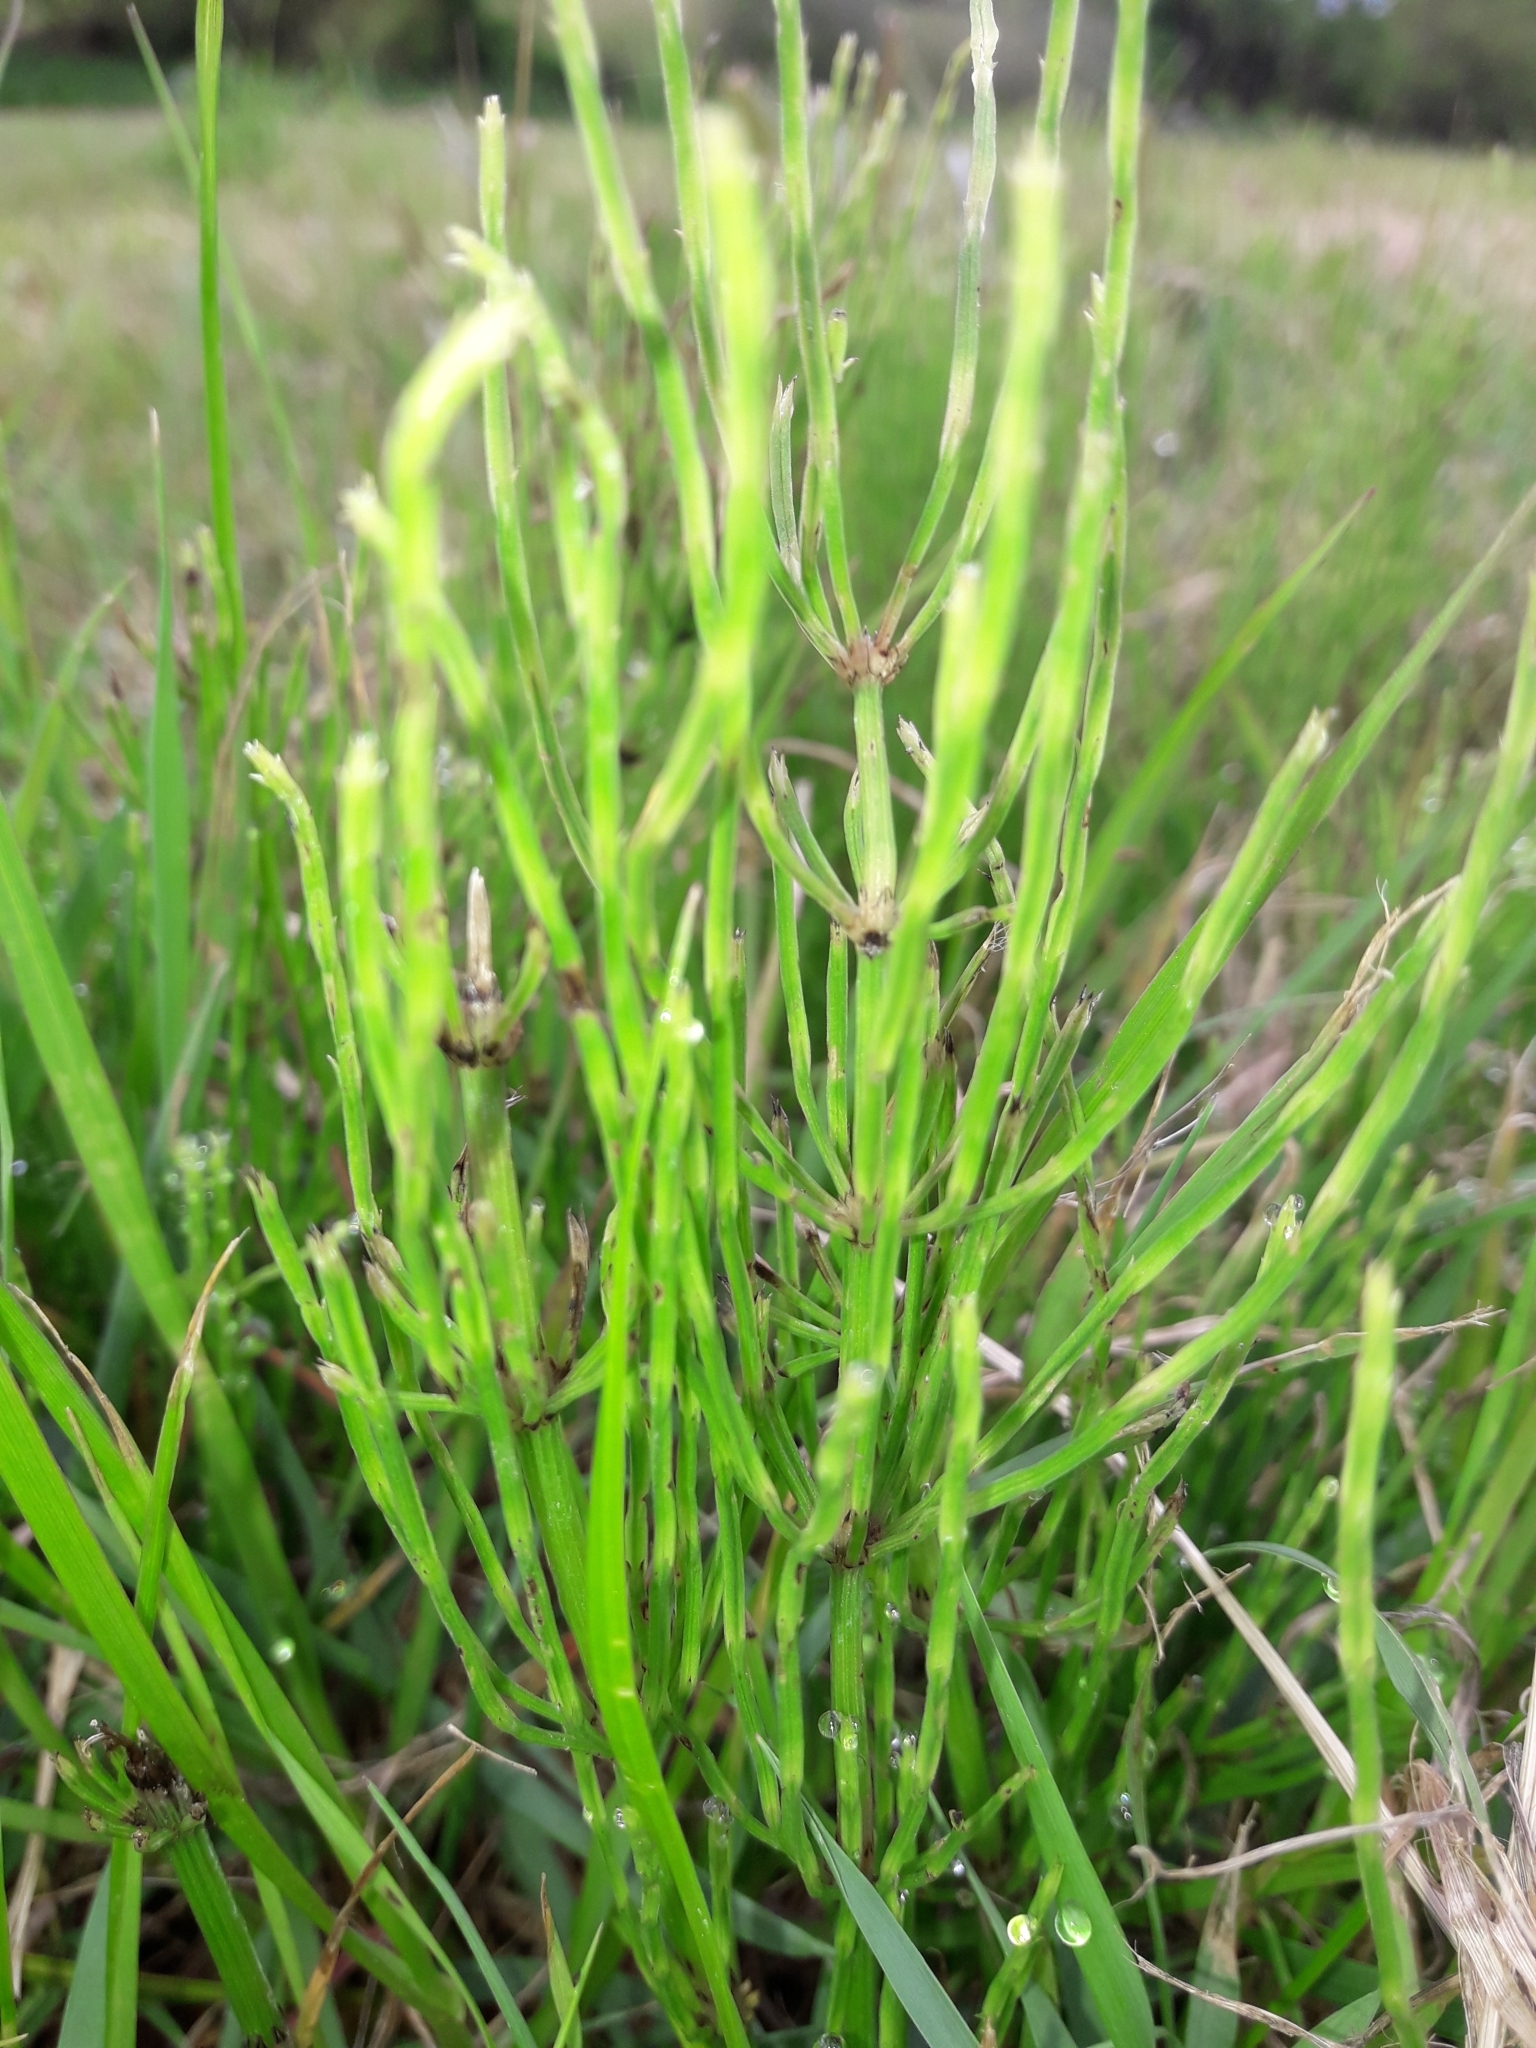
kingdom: Plantae
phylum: Tracheophyta
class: Polypodiopsida
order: Equisetales
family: Equisetaceae
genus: Equisetum
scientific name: Equisetum arvense
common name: Field horsetail
